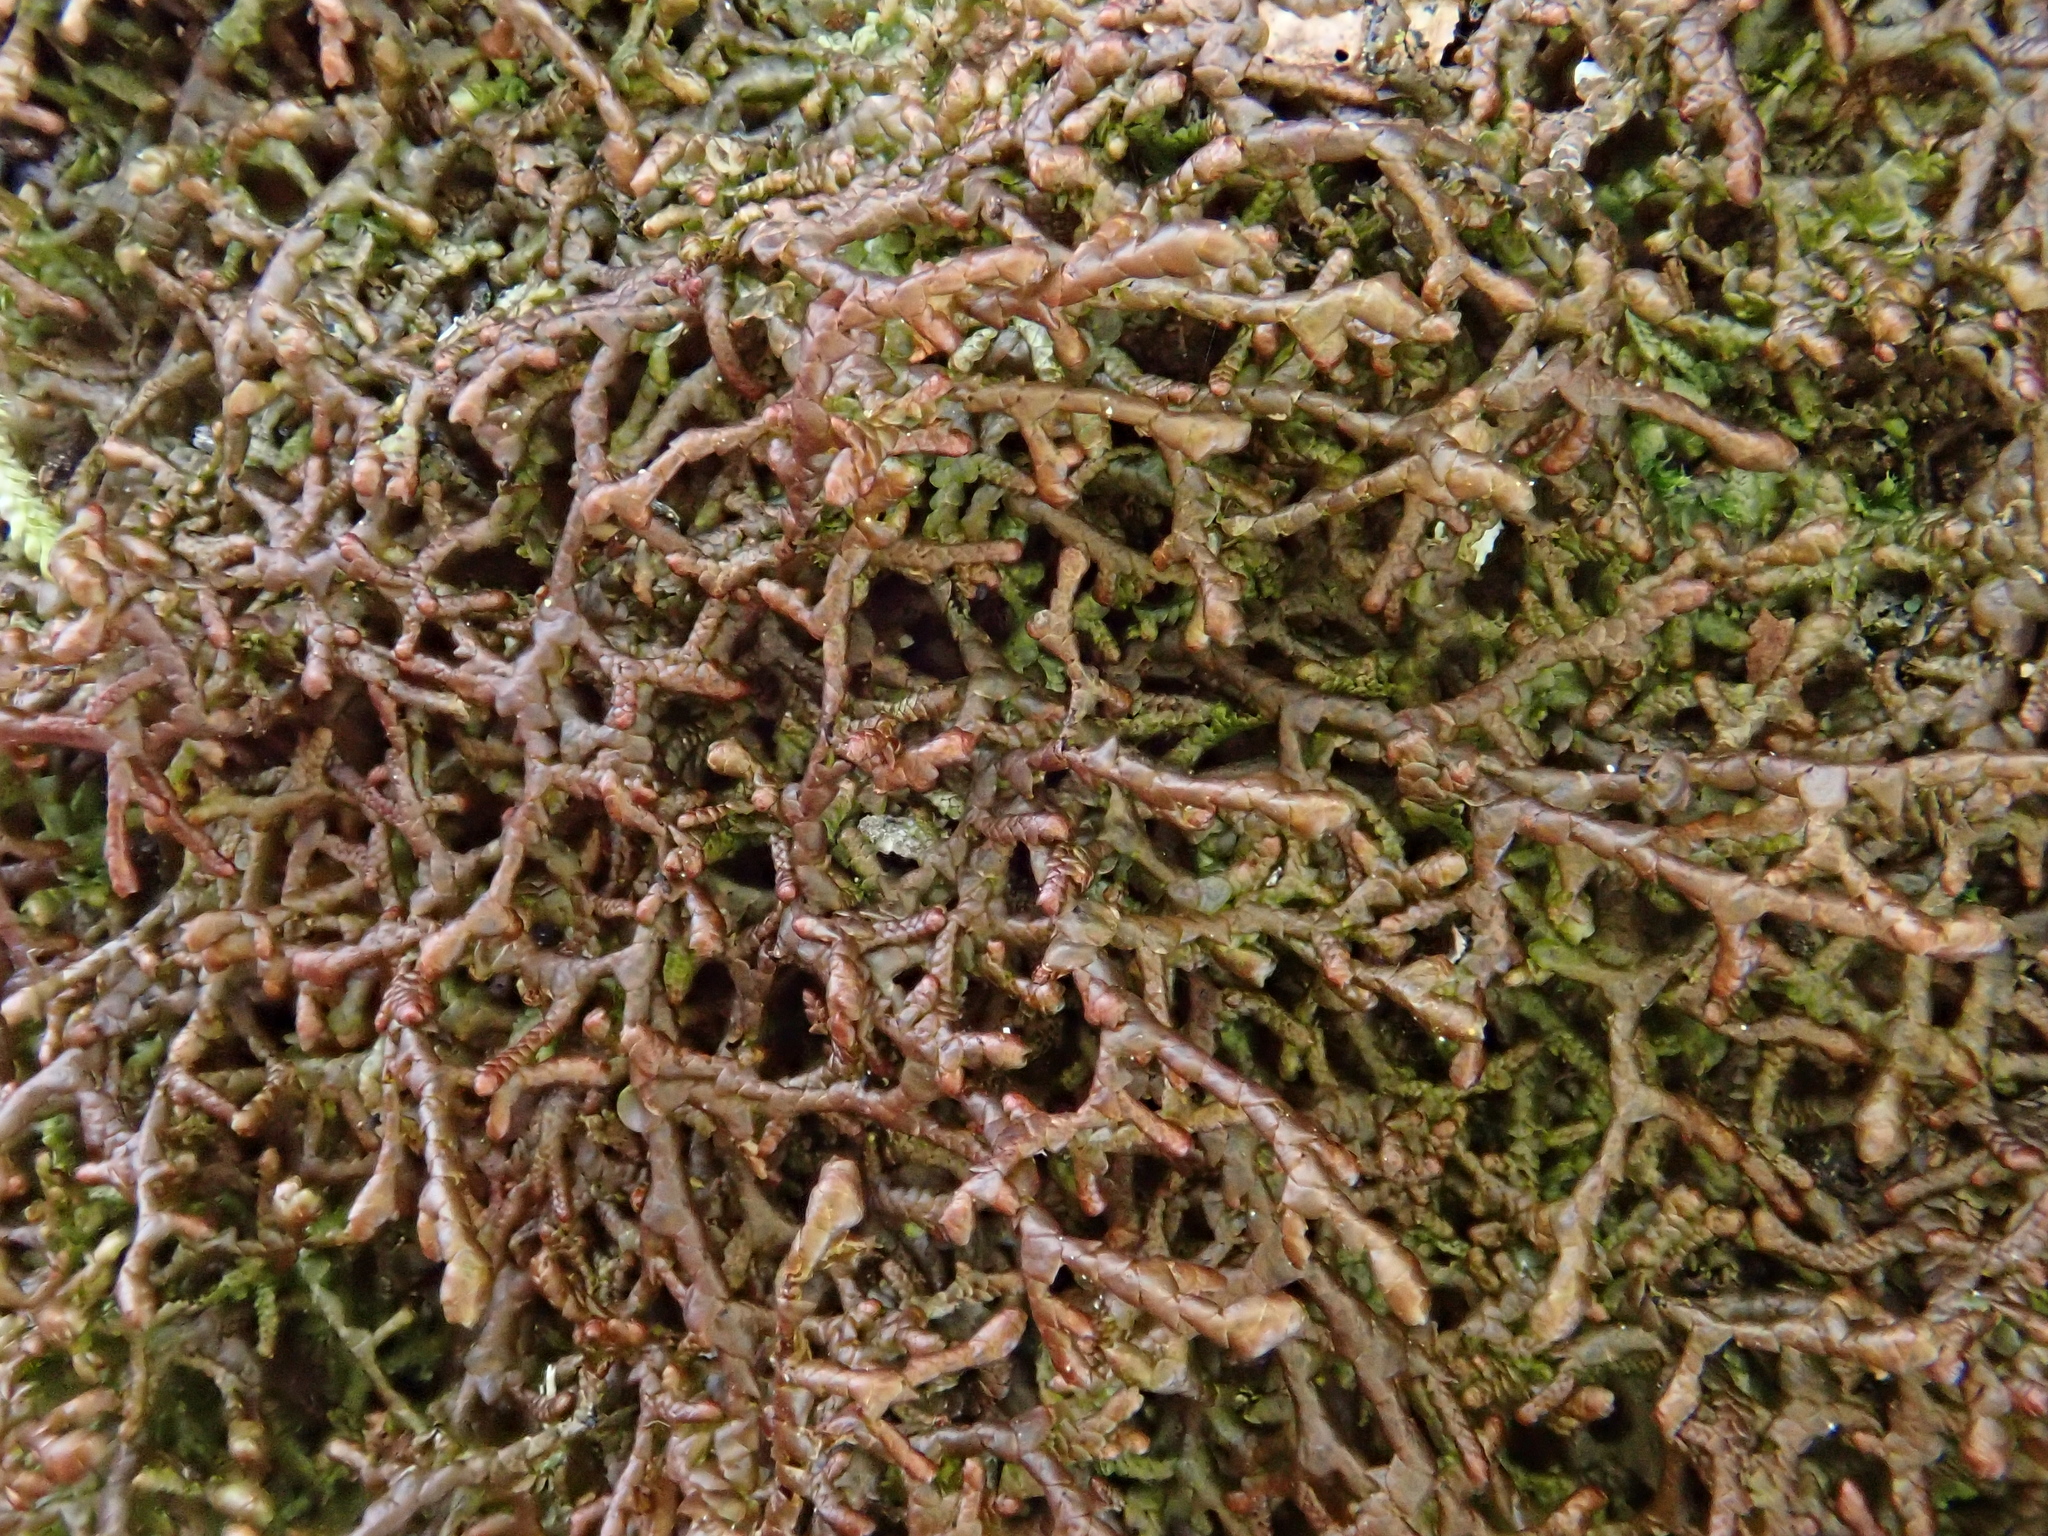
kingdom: Plantae
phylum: Marchantiophyta
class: Jungermanniopsida
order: Porellales
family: Frullaniaceae
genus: Frullania
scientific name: Frullania tamarisci
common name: Tamarisk scalewort
